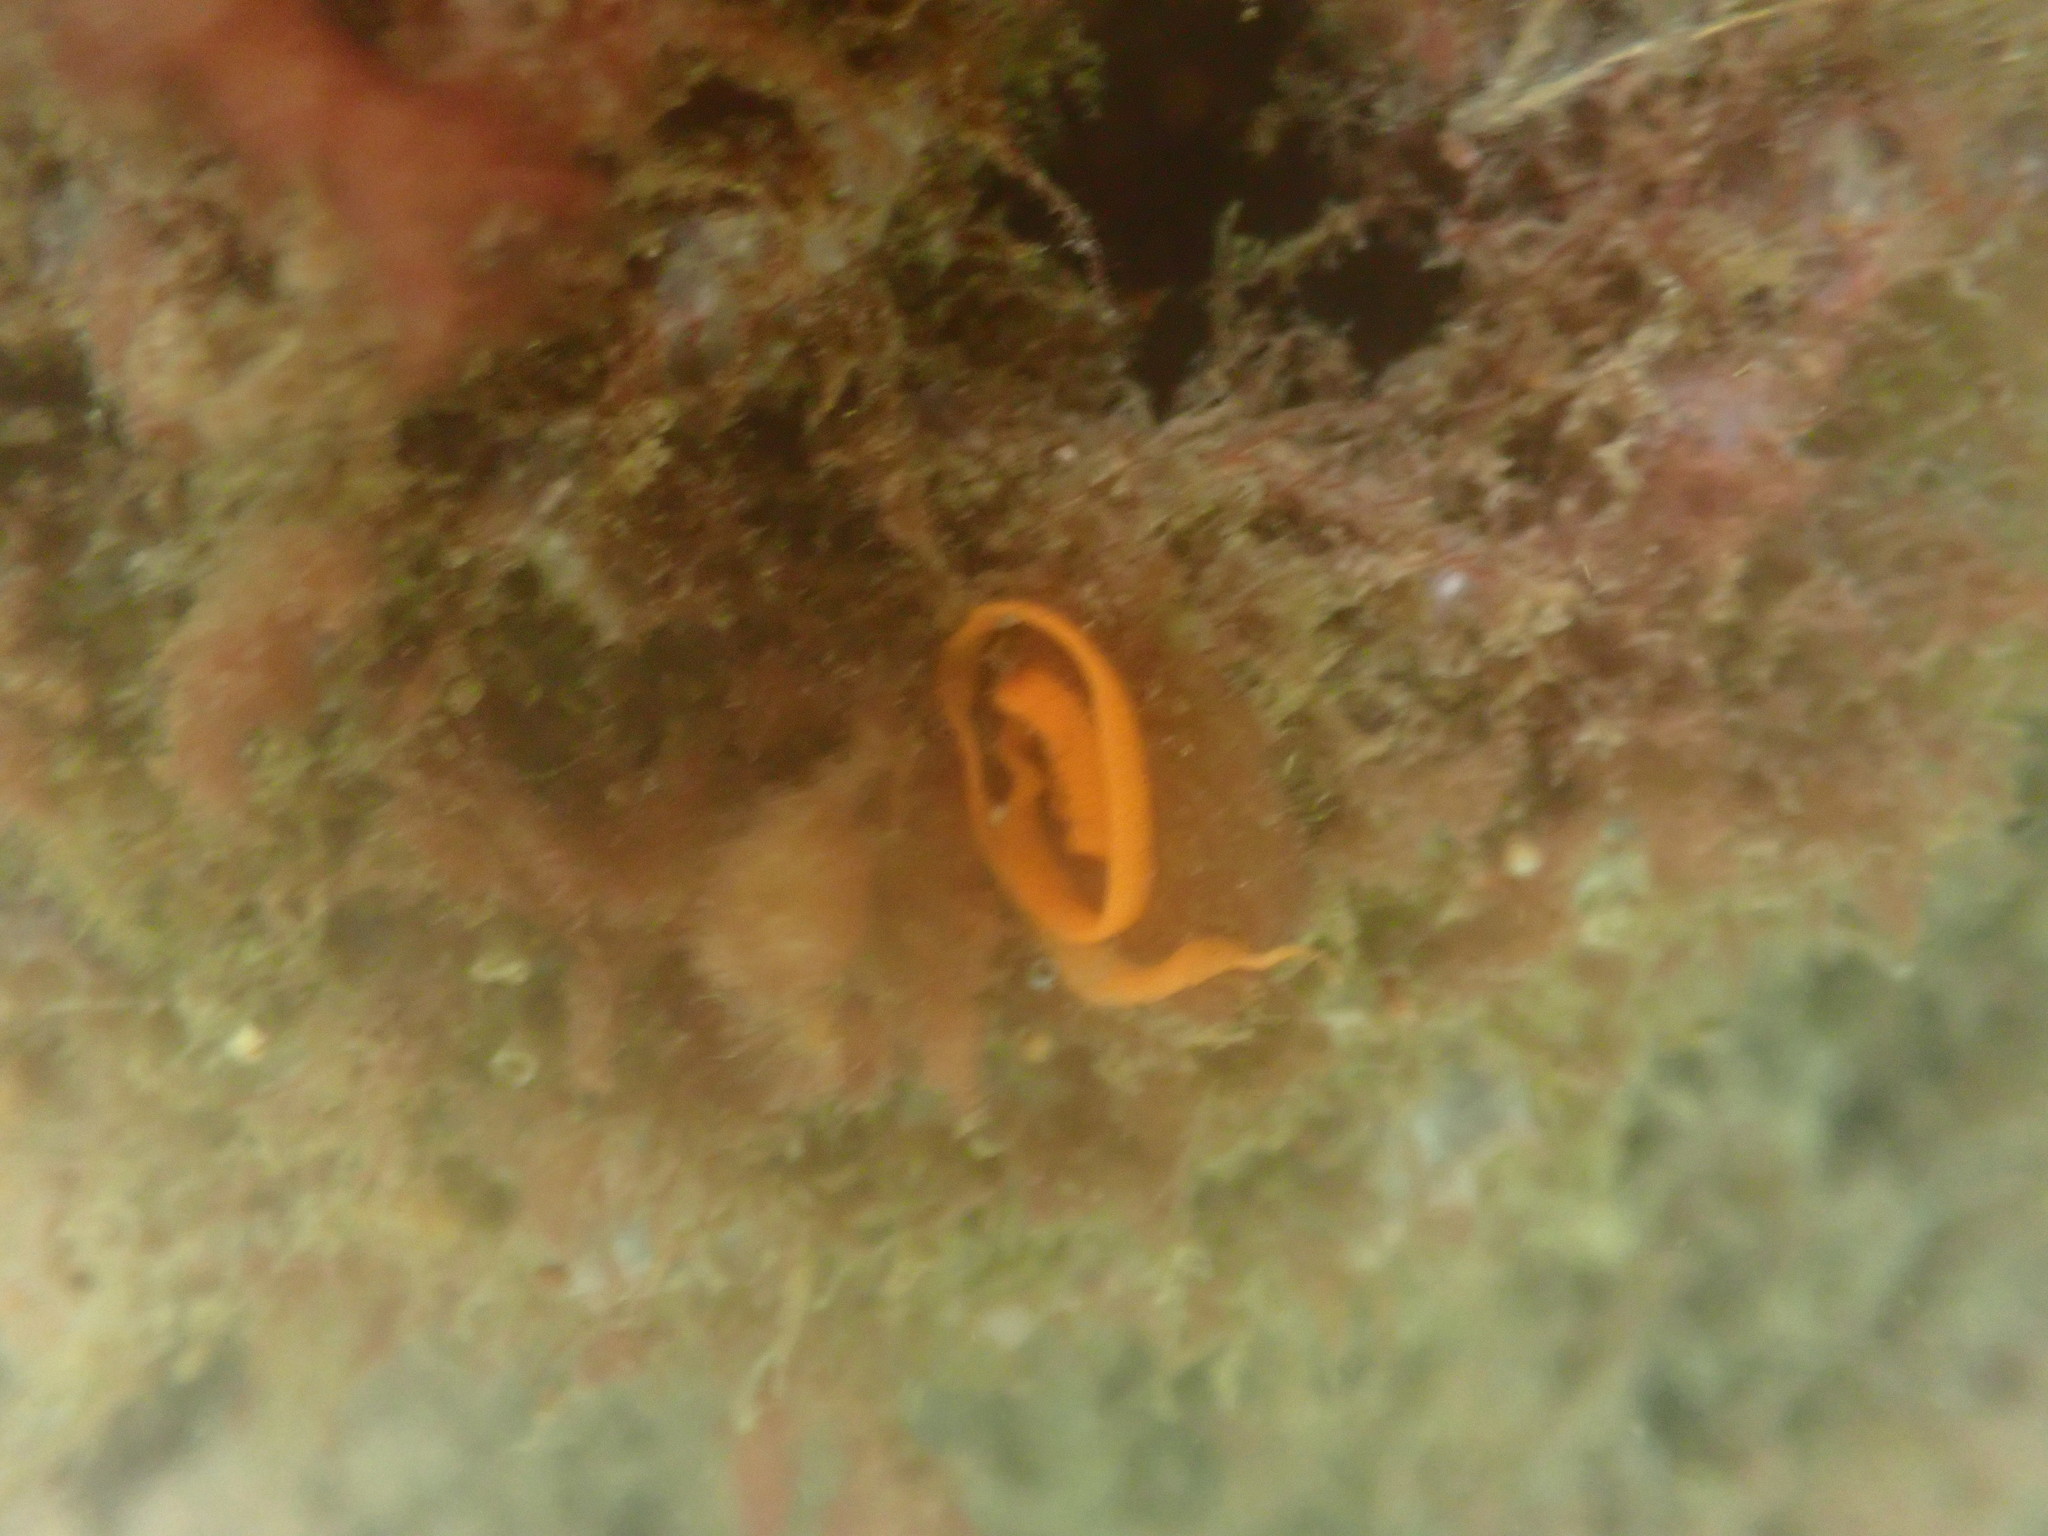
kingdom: Animalia
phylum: Mollusca
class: Gastropoda
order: Nudibranchia
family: Discodorididae
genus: Rostanga
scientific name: Rostanga muscula
